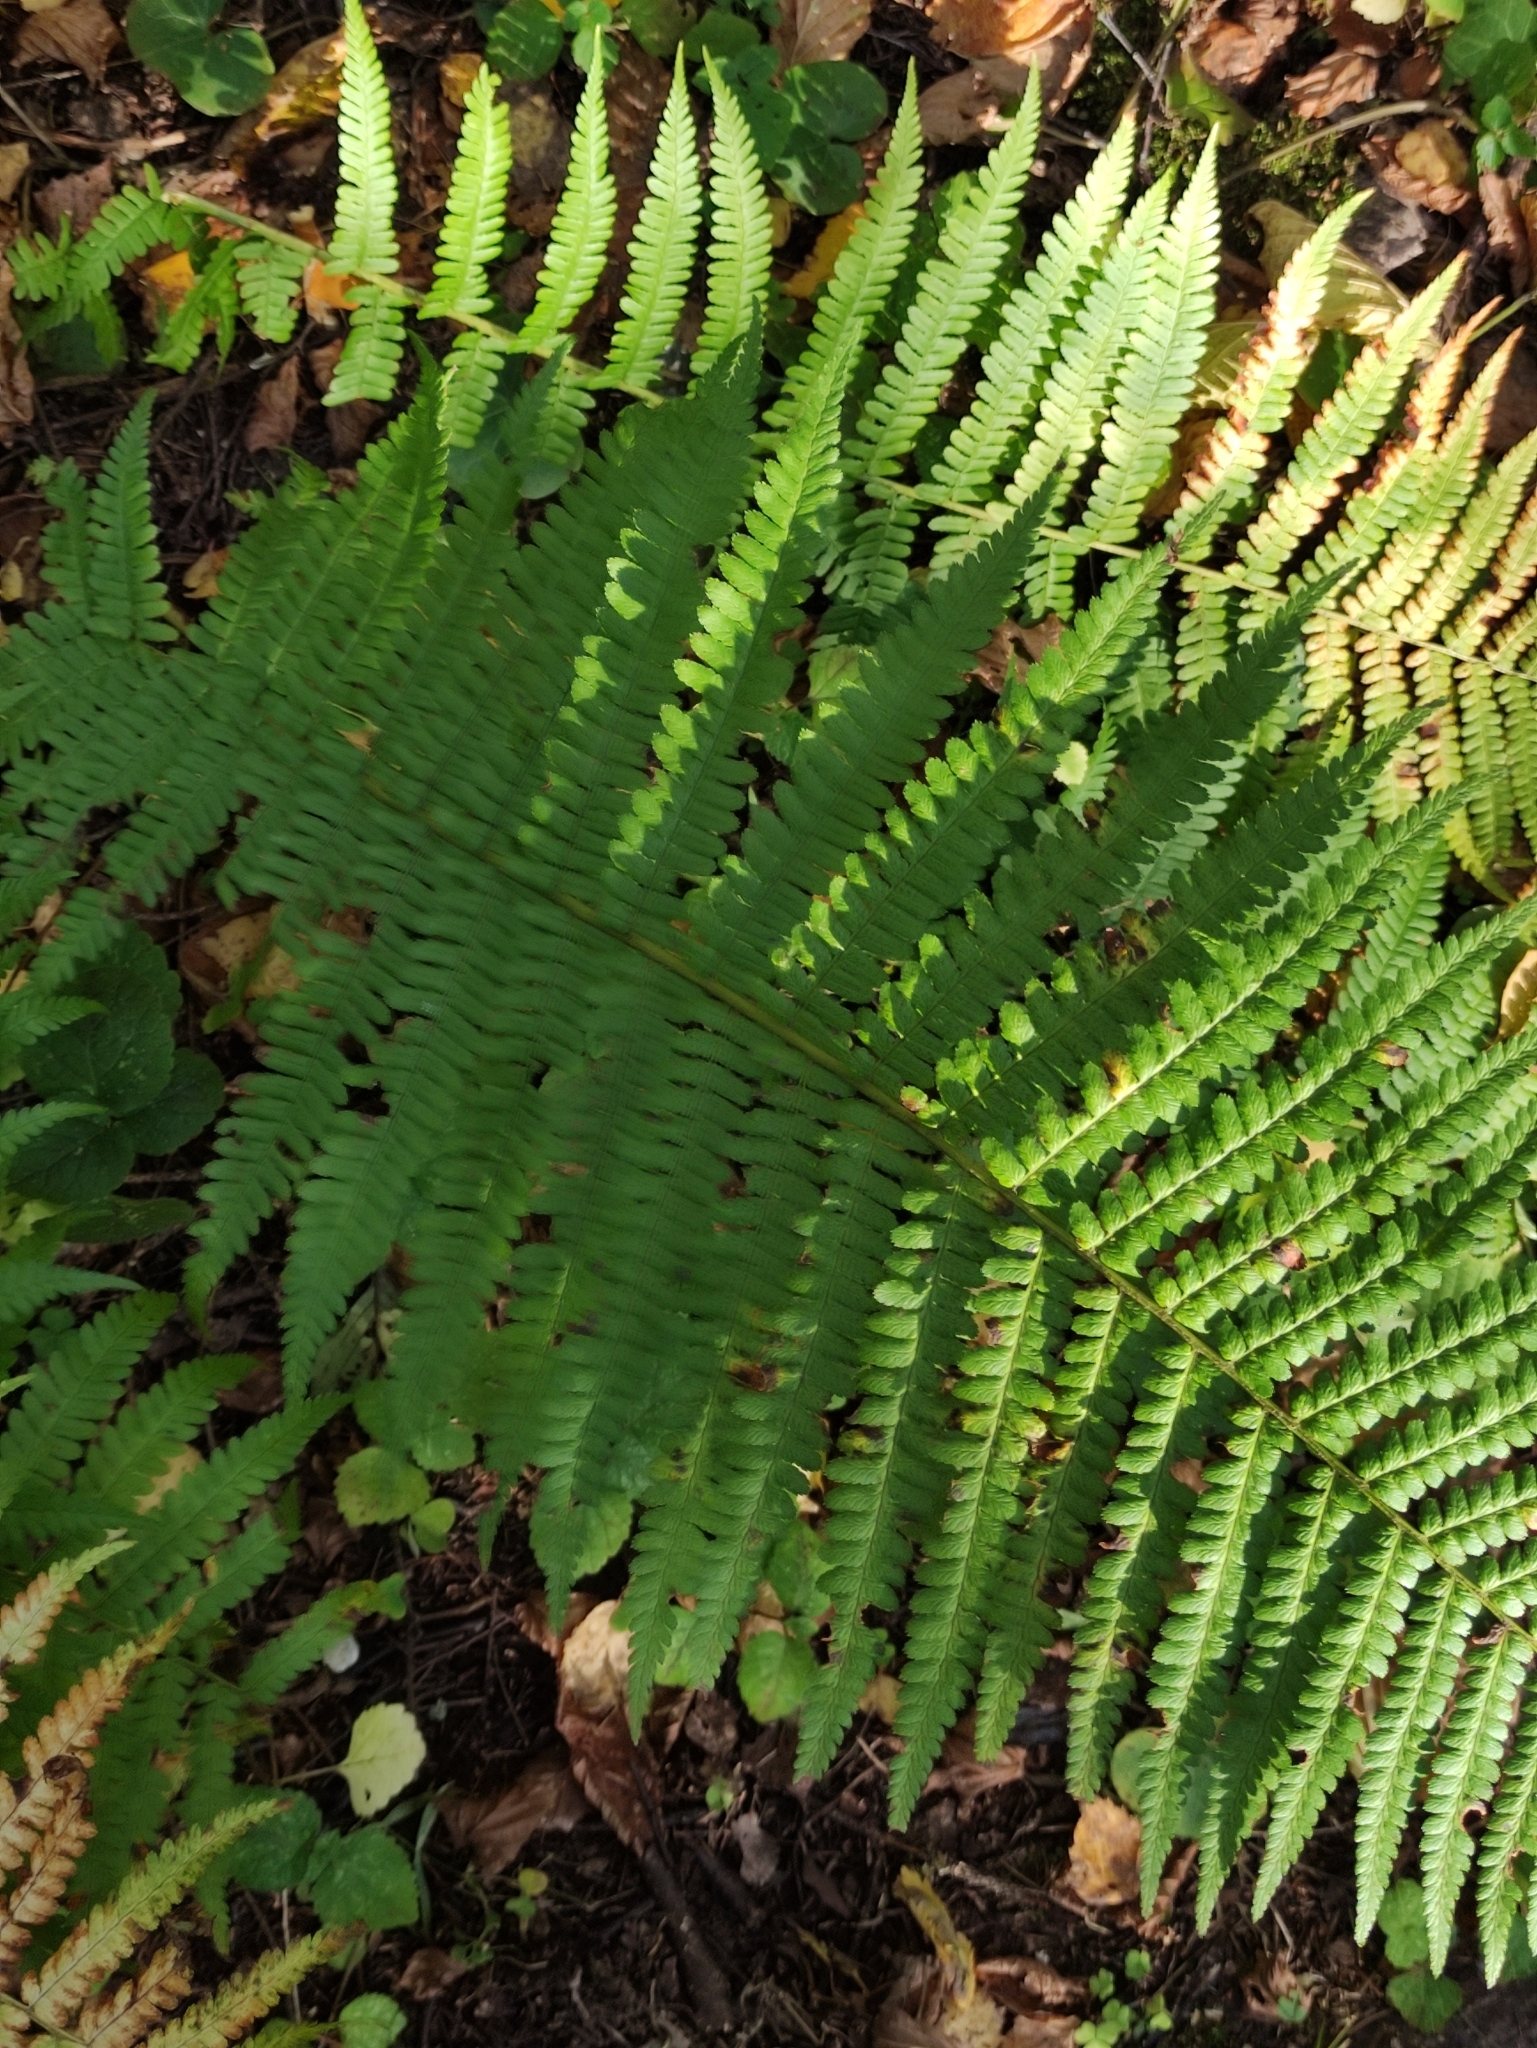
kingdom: Plantae
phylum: Tracheophyta
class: Polypodiopsida
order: Polypodiales
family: Dryopteridaceae
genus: Dryopteris
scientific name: Dryopteris filix-mas
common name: Male fern
